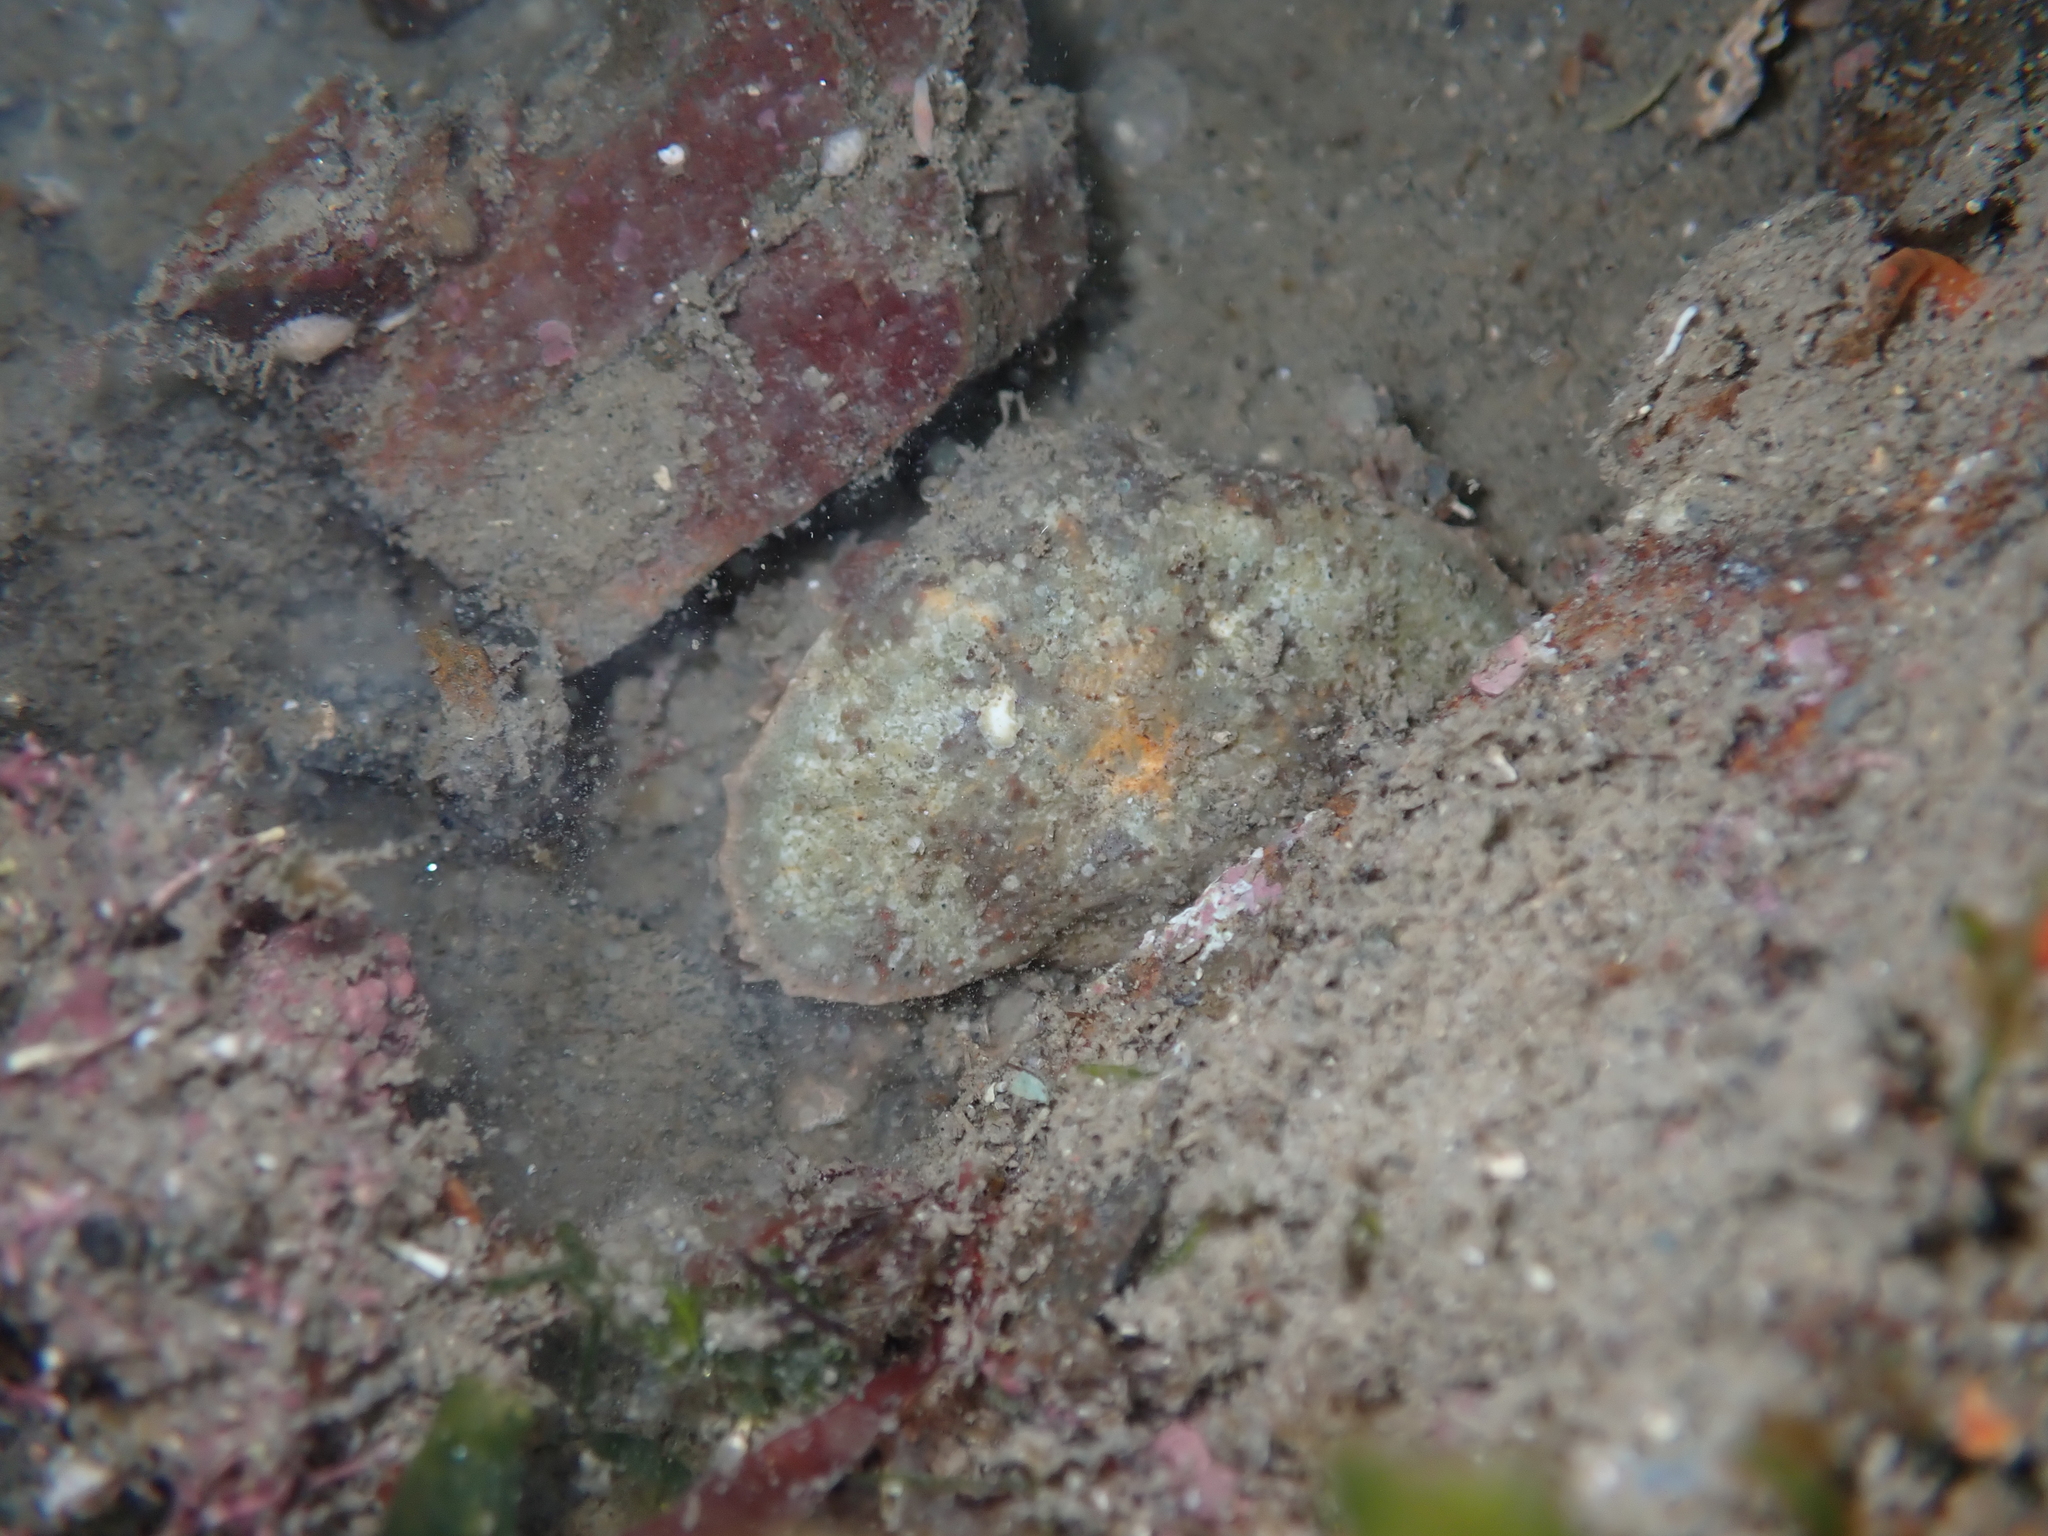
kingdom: Animalia
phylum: Arthropoda
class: Malacostraca
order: Decapoda
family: Majidae
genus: Eurynolambrus
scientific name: Eurynolambrus australis
